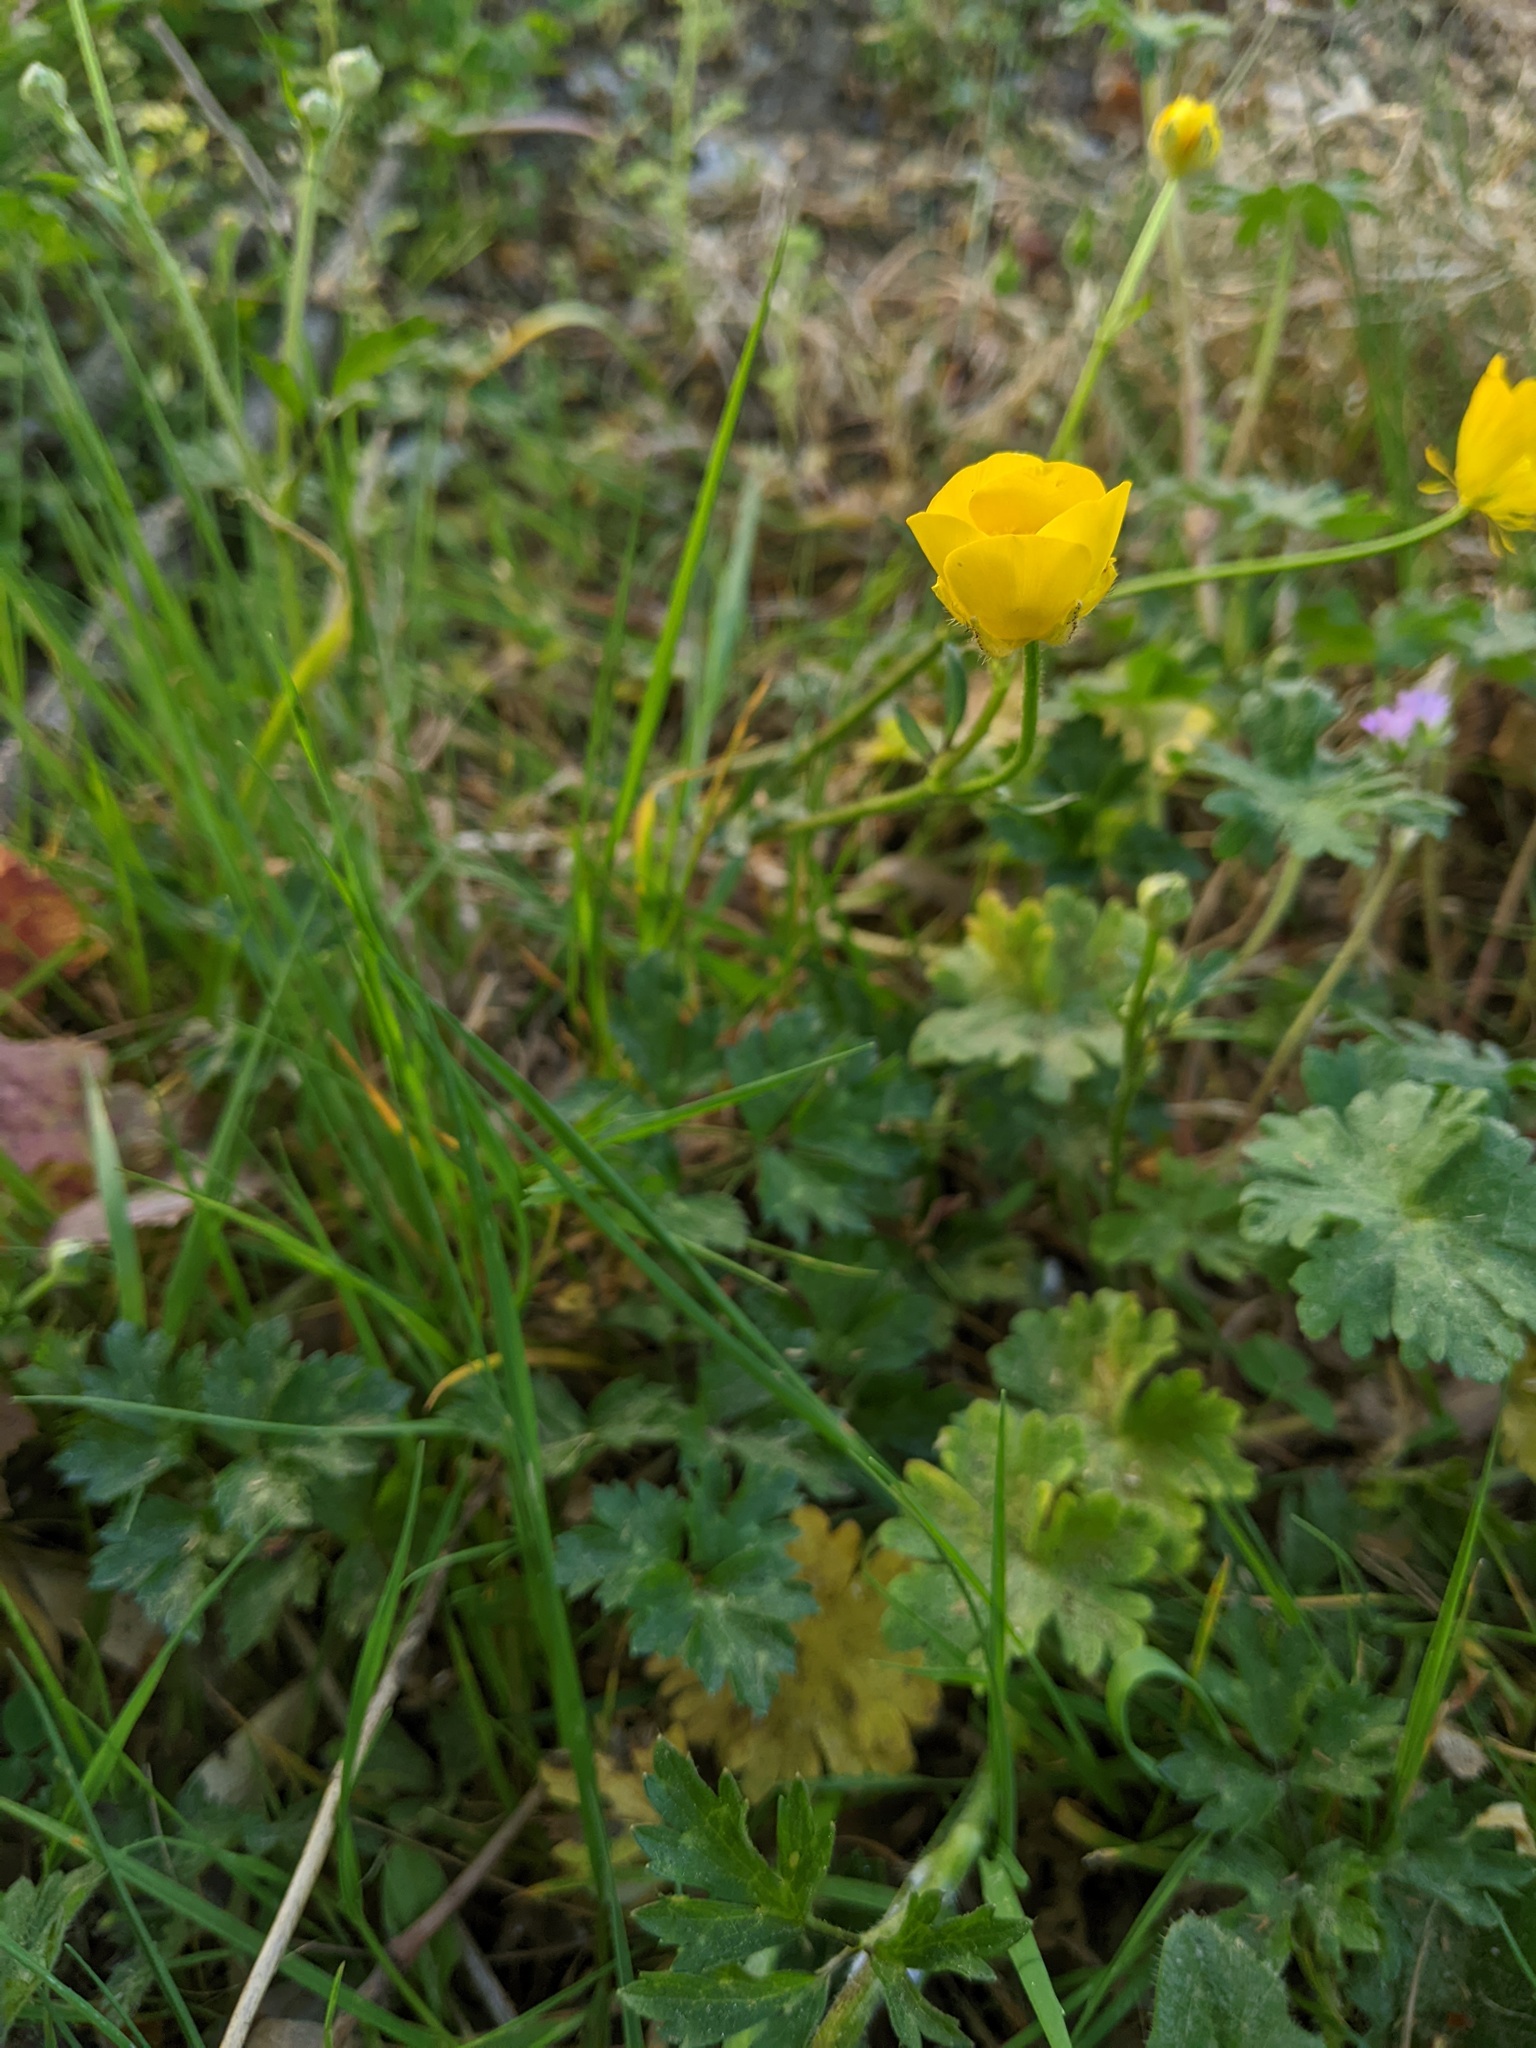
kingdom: Plantae
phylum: Tracheophyta
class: Magnoliopsida
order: Ranunculales
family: Ranunculaceae
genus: Ranunculus
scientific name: Ranunculus repens
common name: Creeping buttercup
